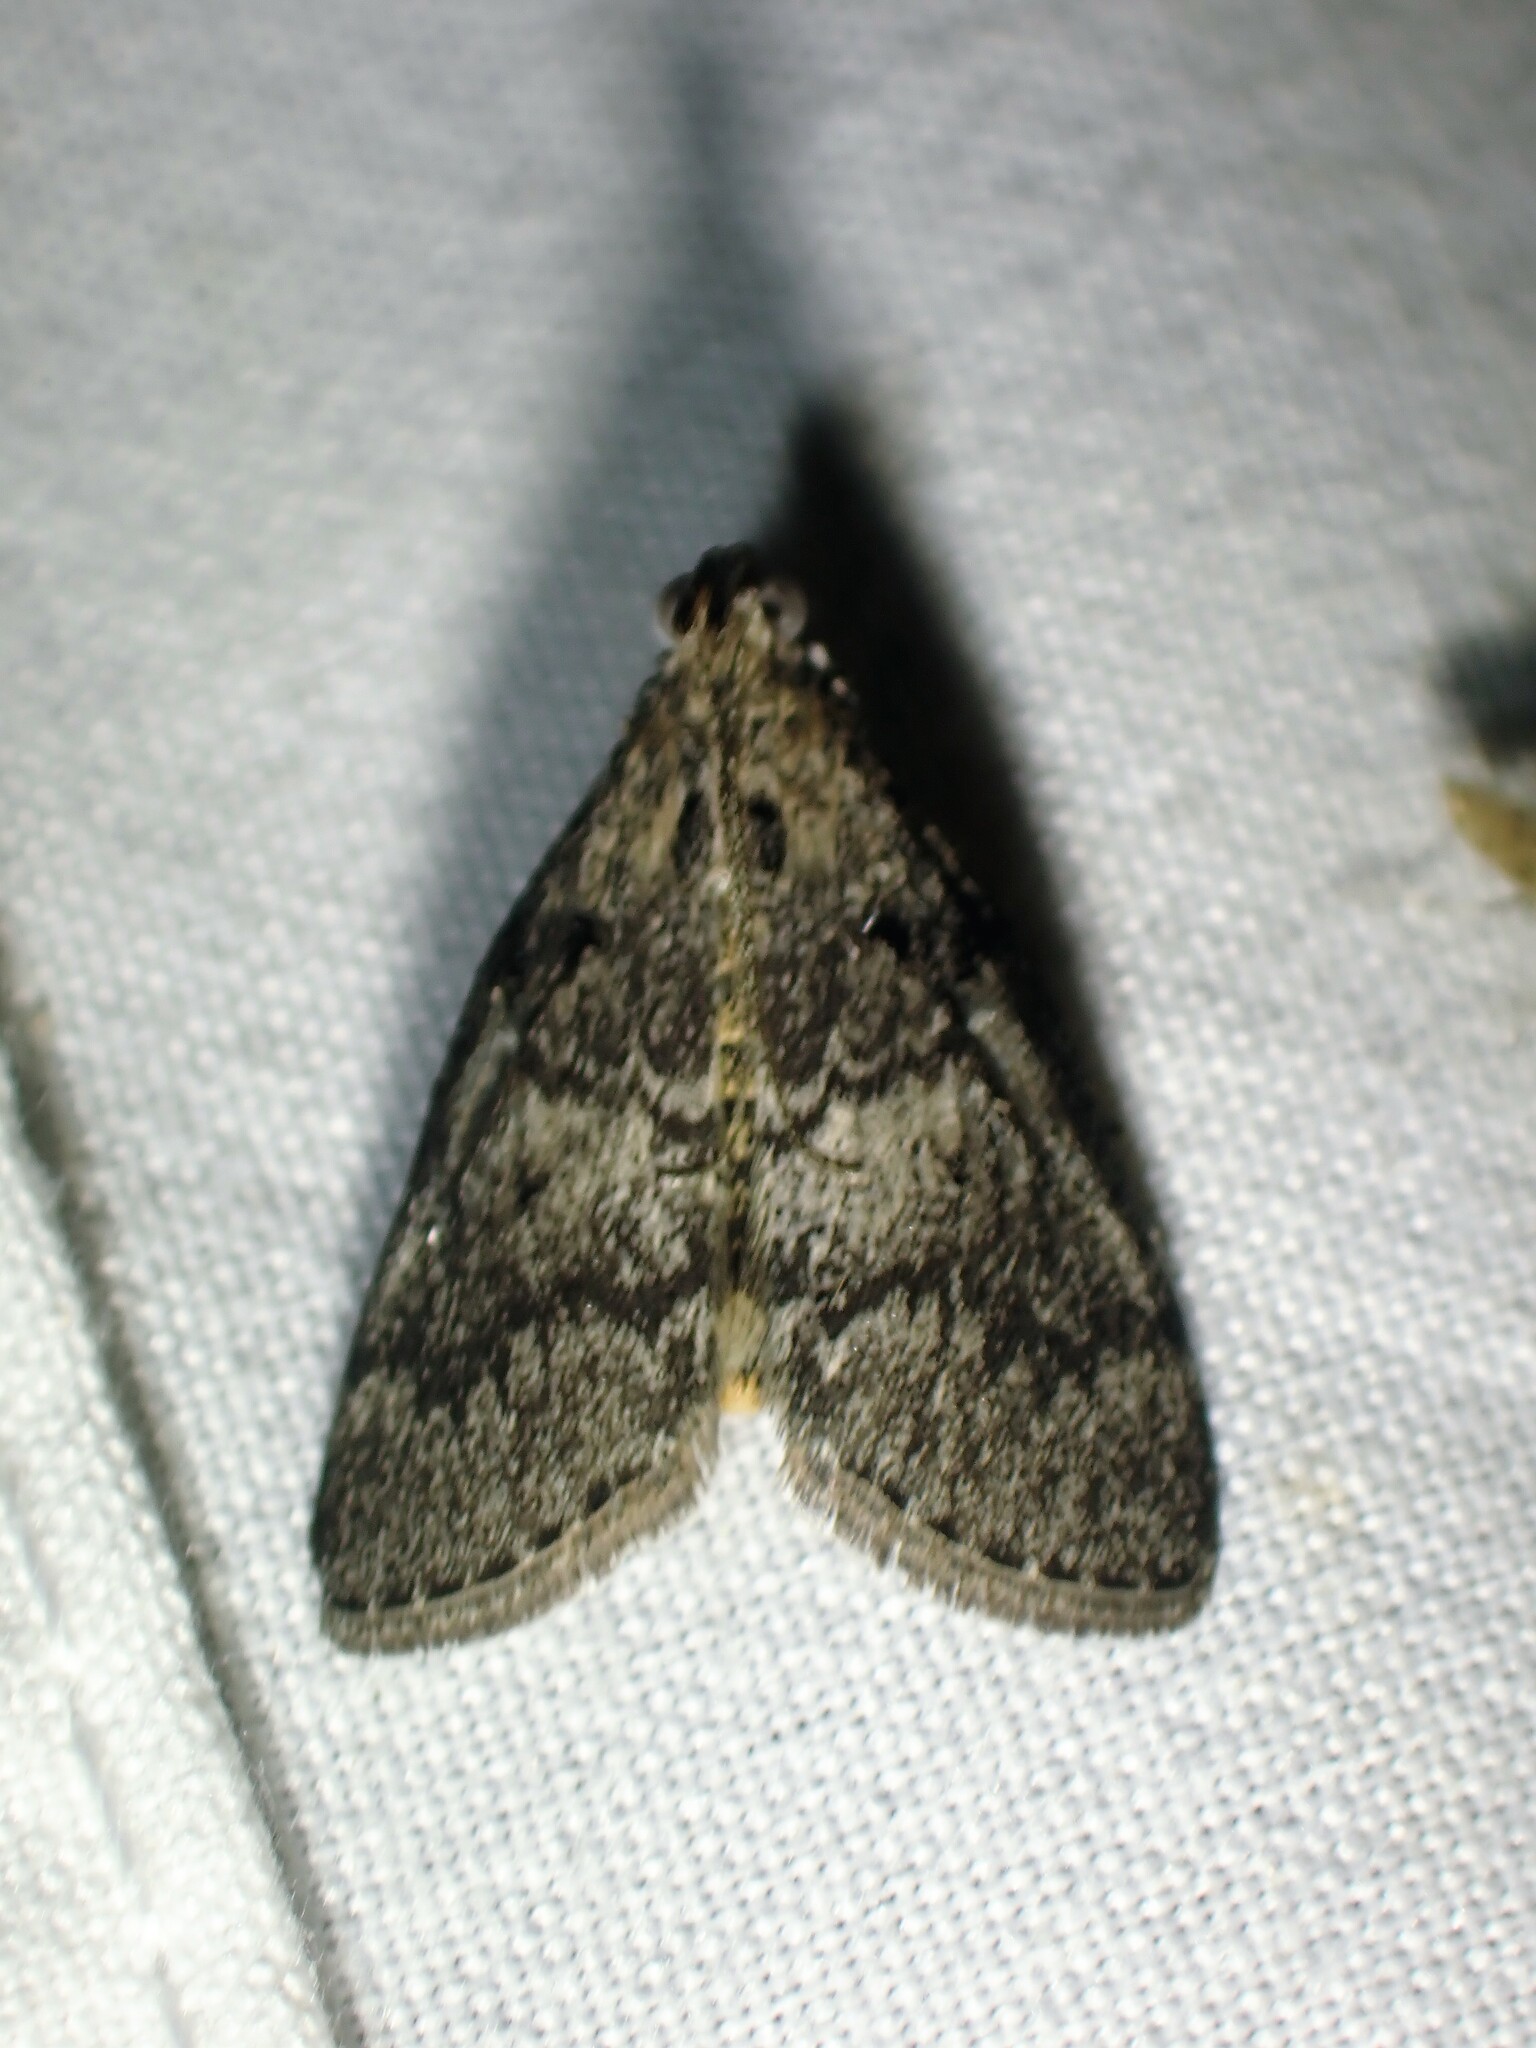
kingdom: Animalia
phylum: Arthropoda
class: Insecta
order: Lepidoptera
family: Pyralidae
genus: Pococera
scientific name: Pococera asperatella
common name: Maple webworm moth
